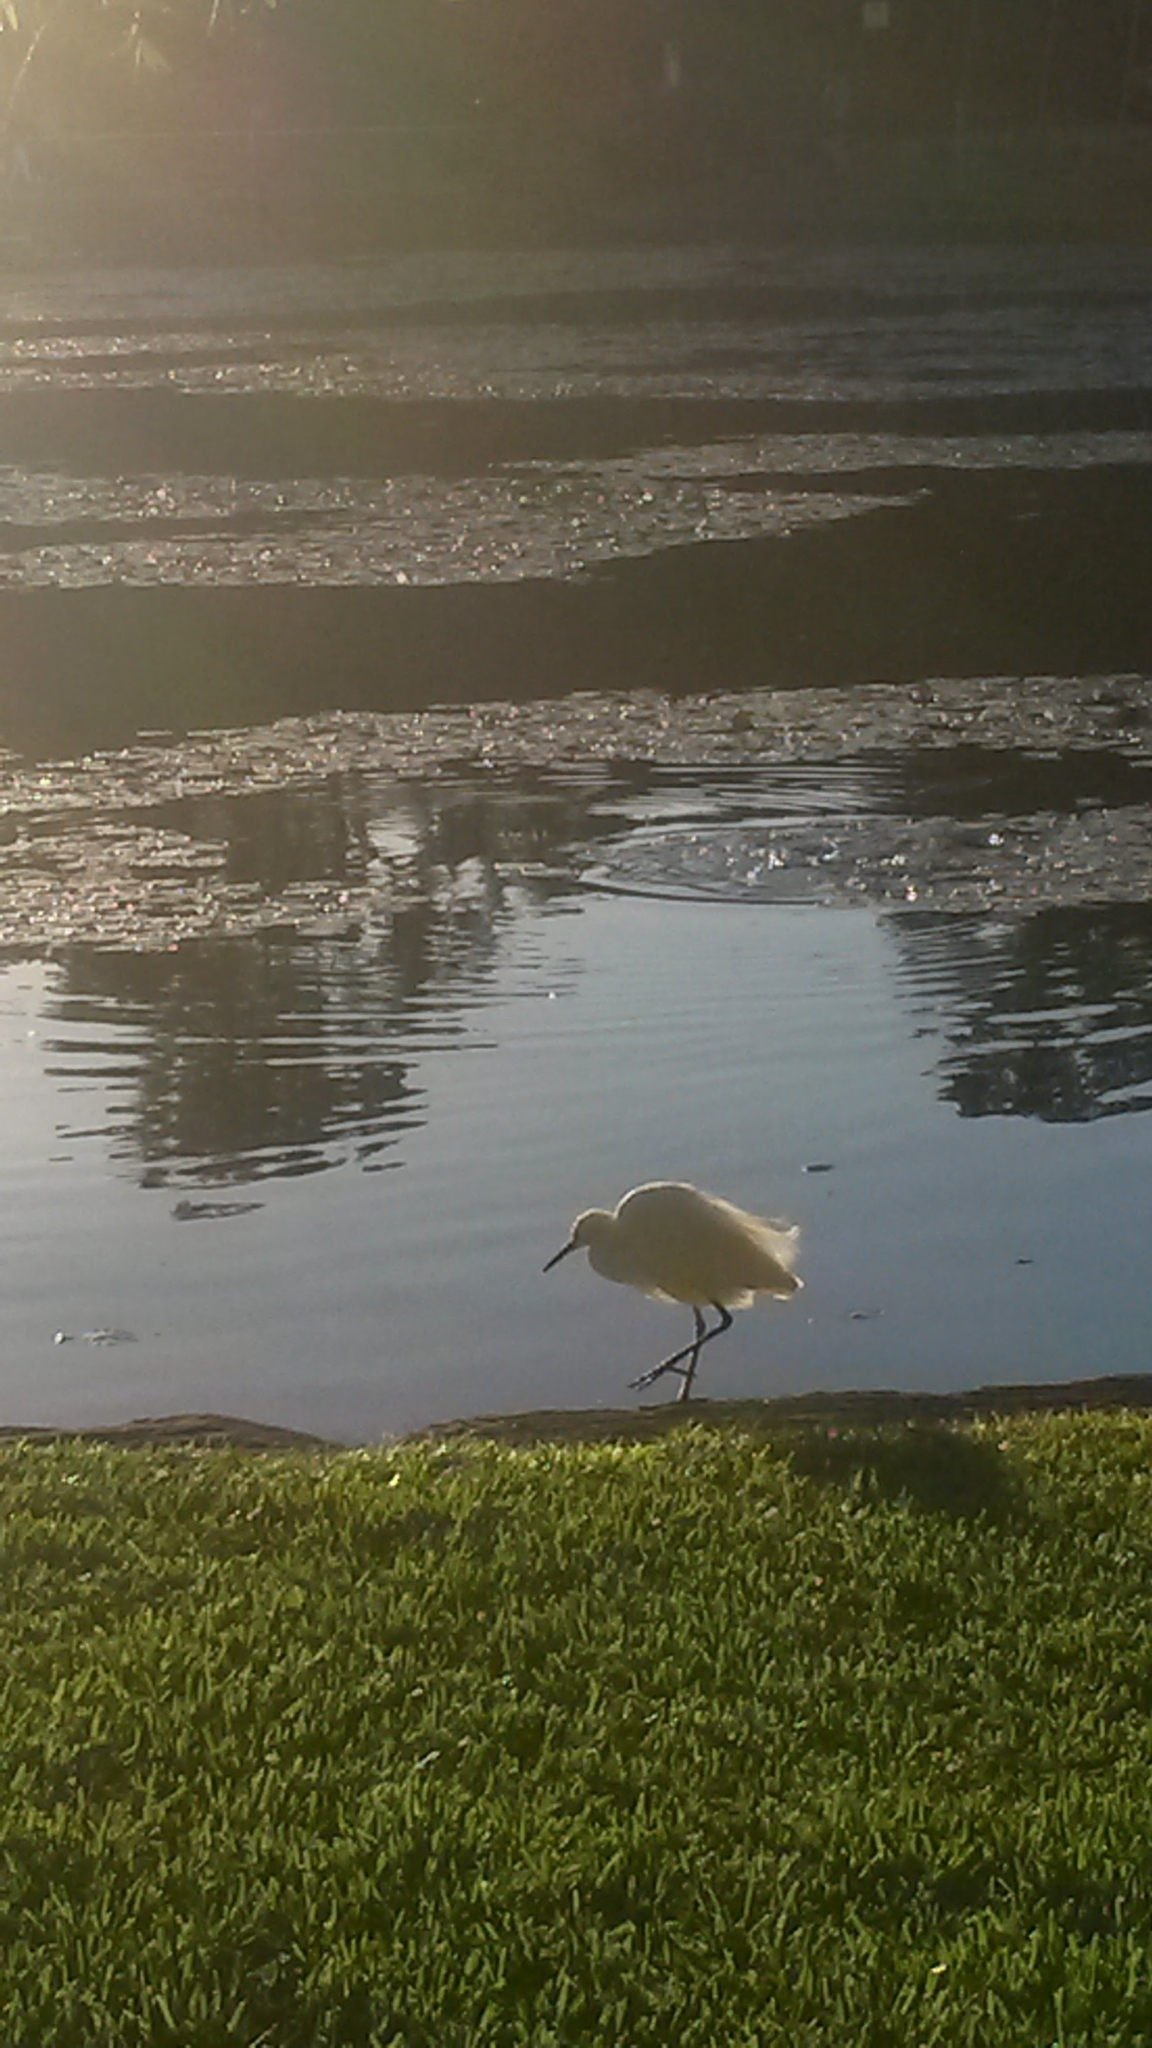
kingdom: Animalia
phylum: Chordata
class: Aves
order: Pelecaniformes
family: Ardeidae
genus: Egretta
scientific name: Egretta garzetta
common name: Little egret
